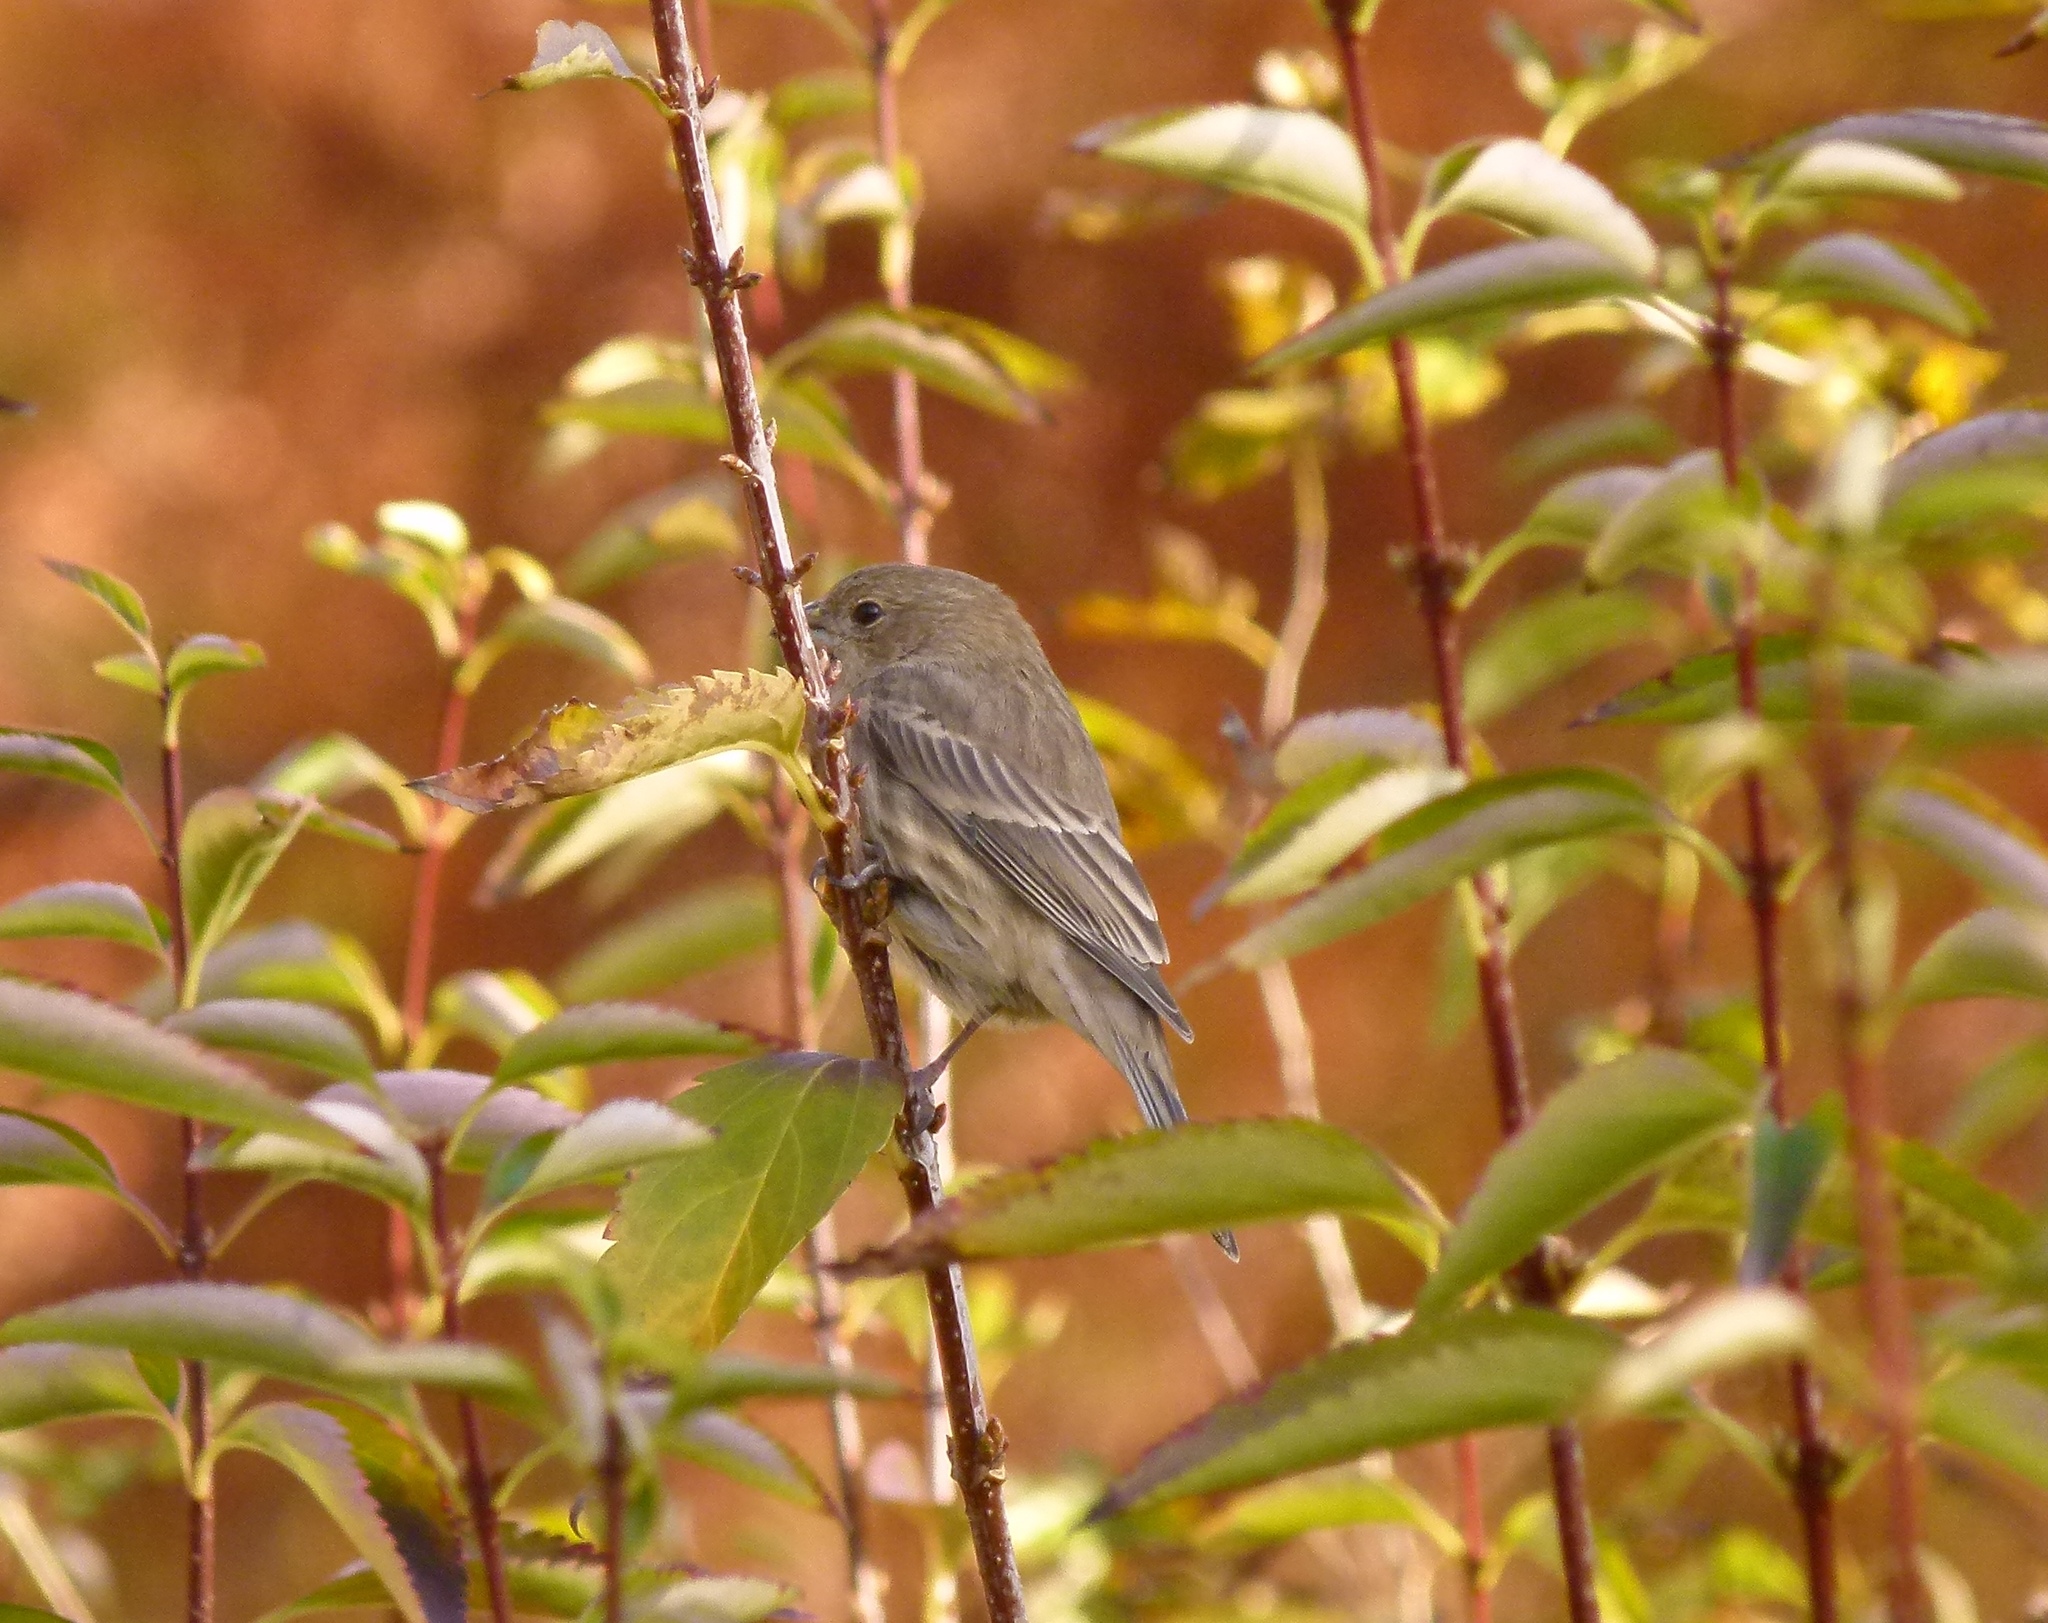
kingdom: Animalia
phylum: Chordata
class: Aves
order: Passeriformes
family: Fringillidae
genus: Haemorhous
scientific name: Haemorhous mexicanus
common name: House finch
